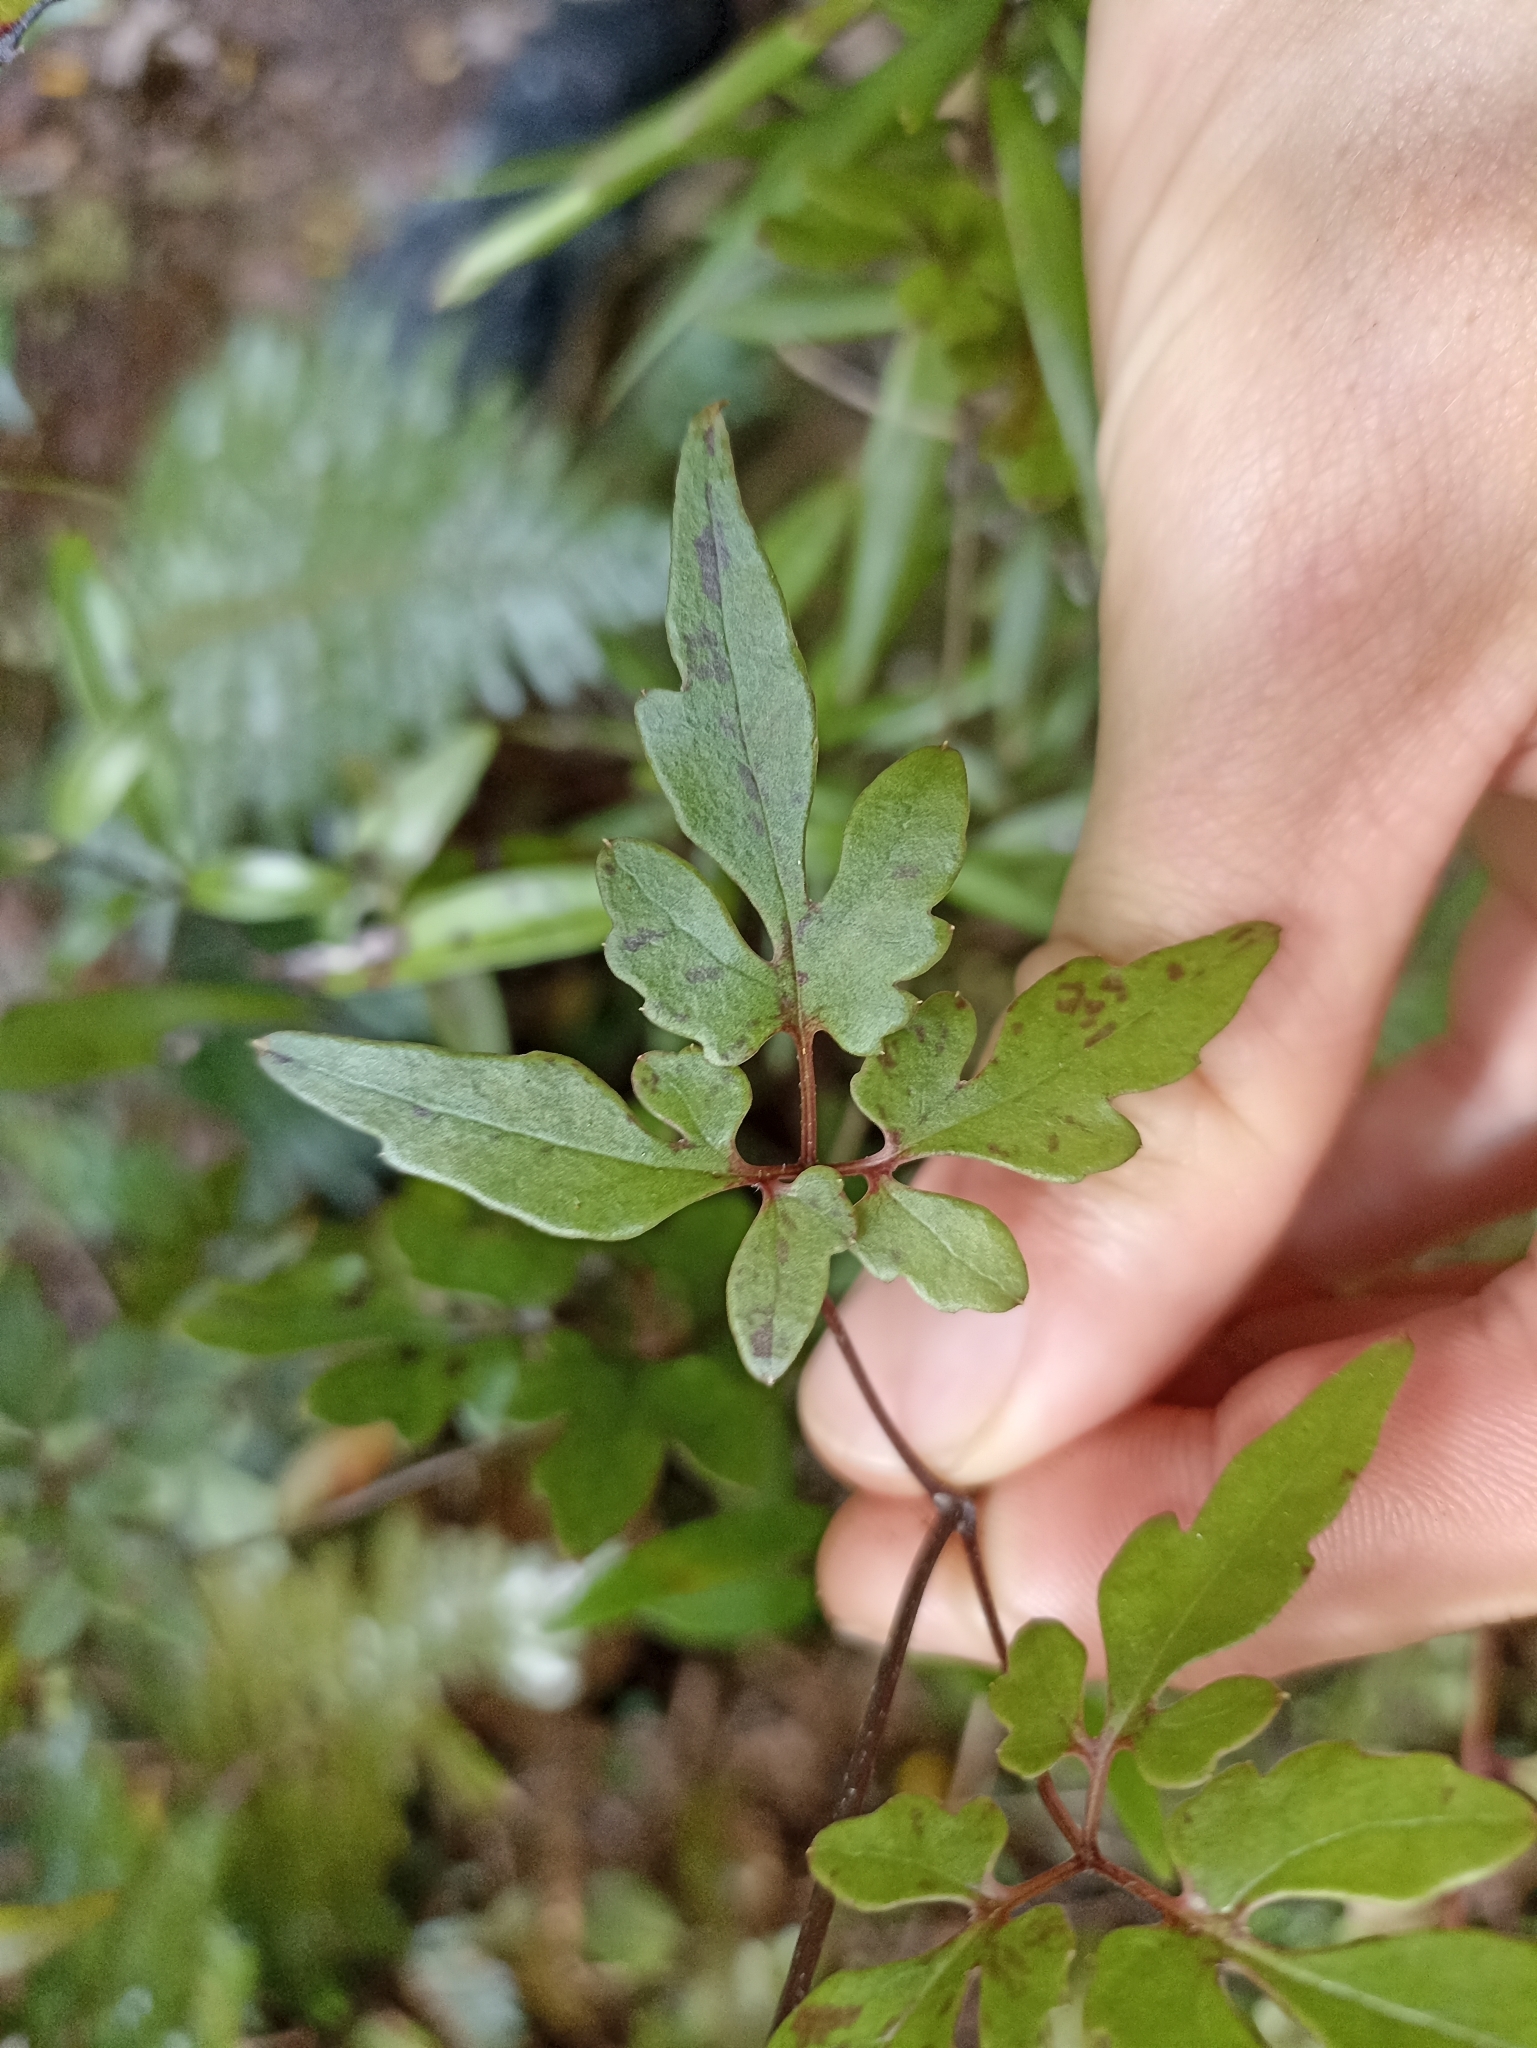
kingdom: Plantae
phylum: Tracheophyta
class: Magnoliopsida
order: Ranunculales
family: Ranunculaceae
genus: Clematis
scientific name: Clematis paniculata
